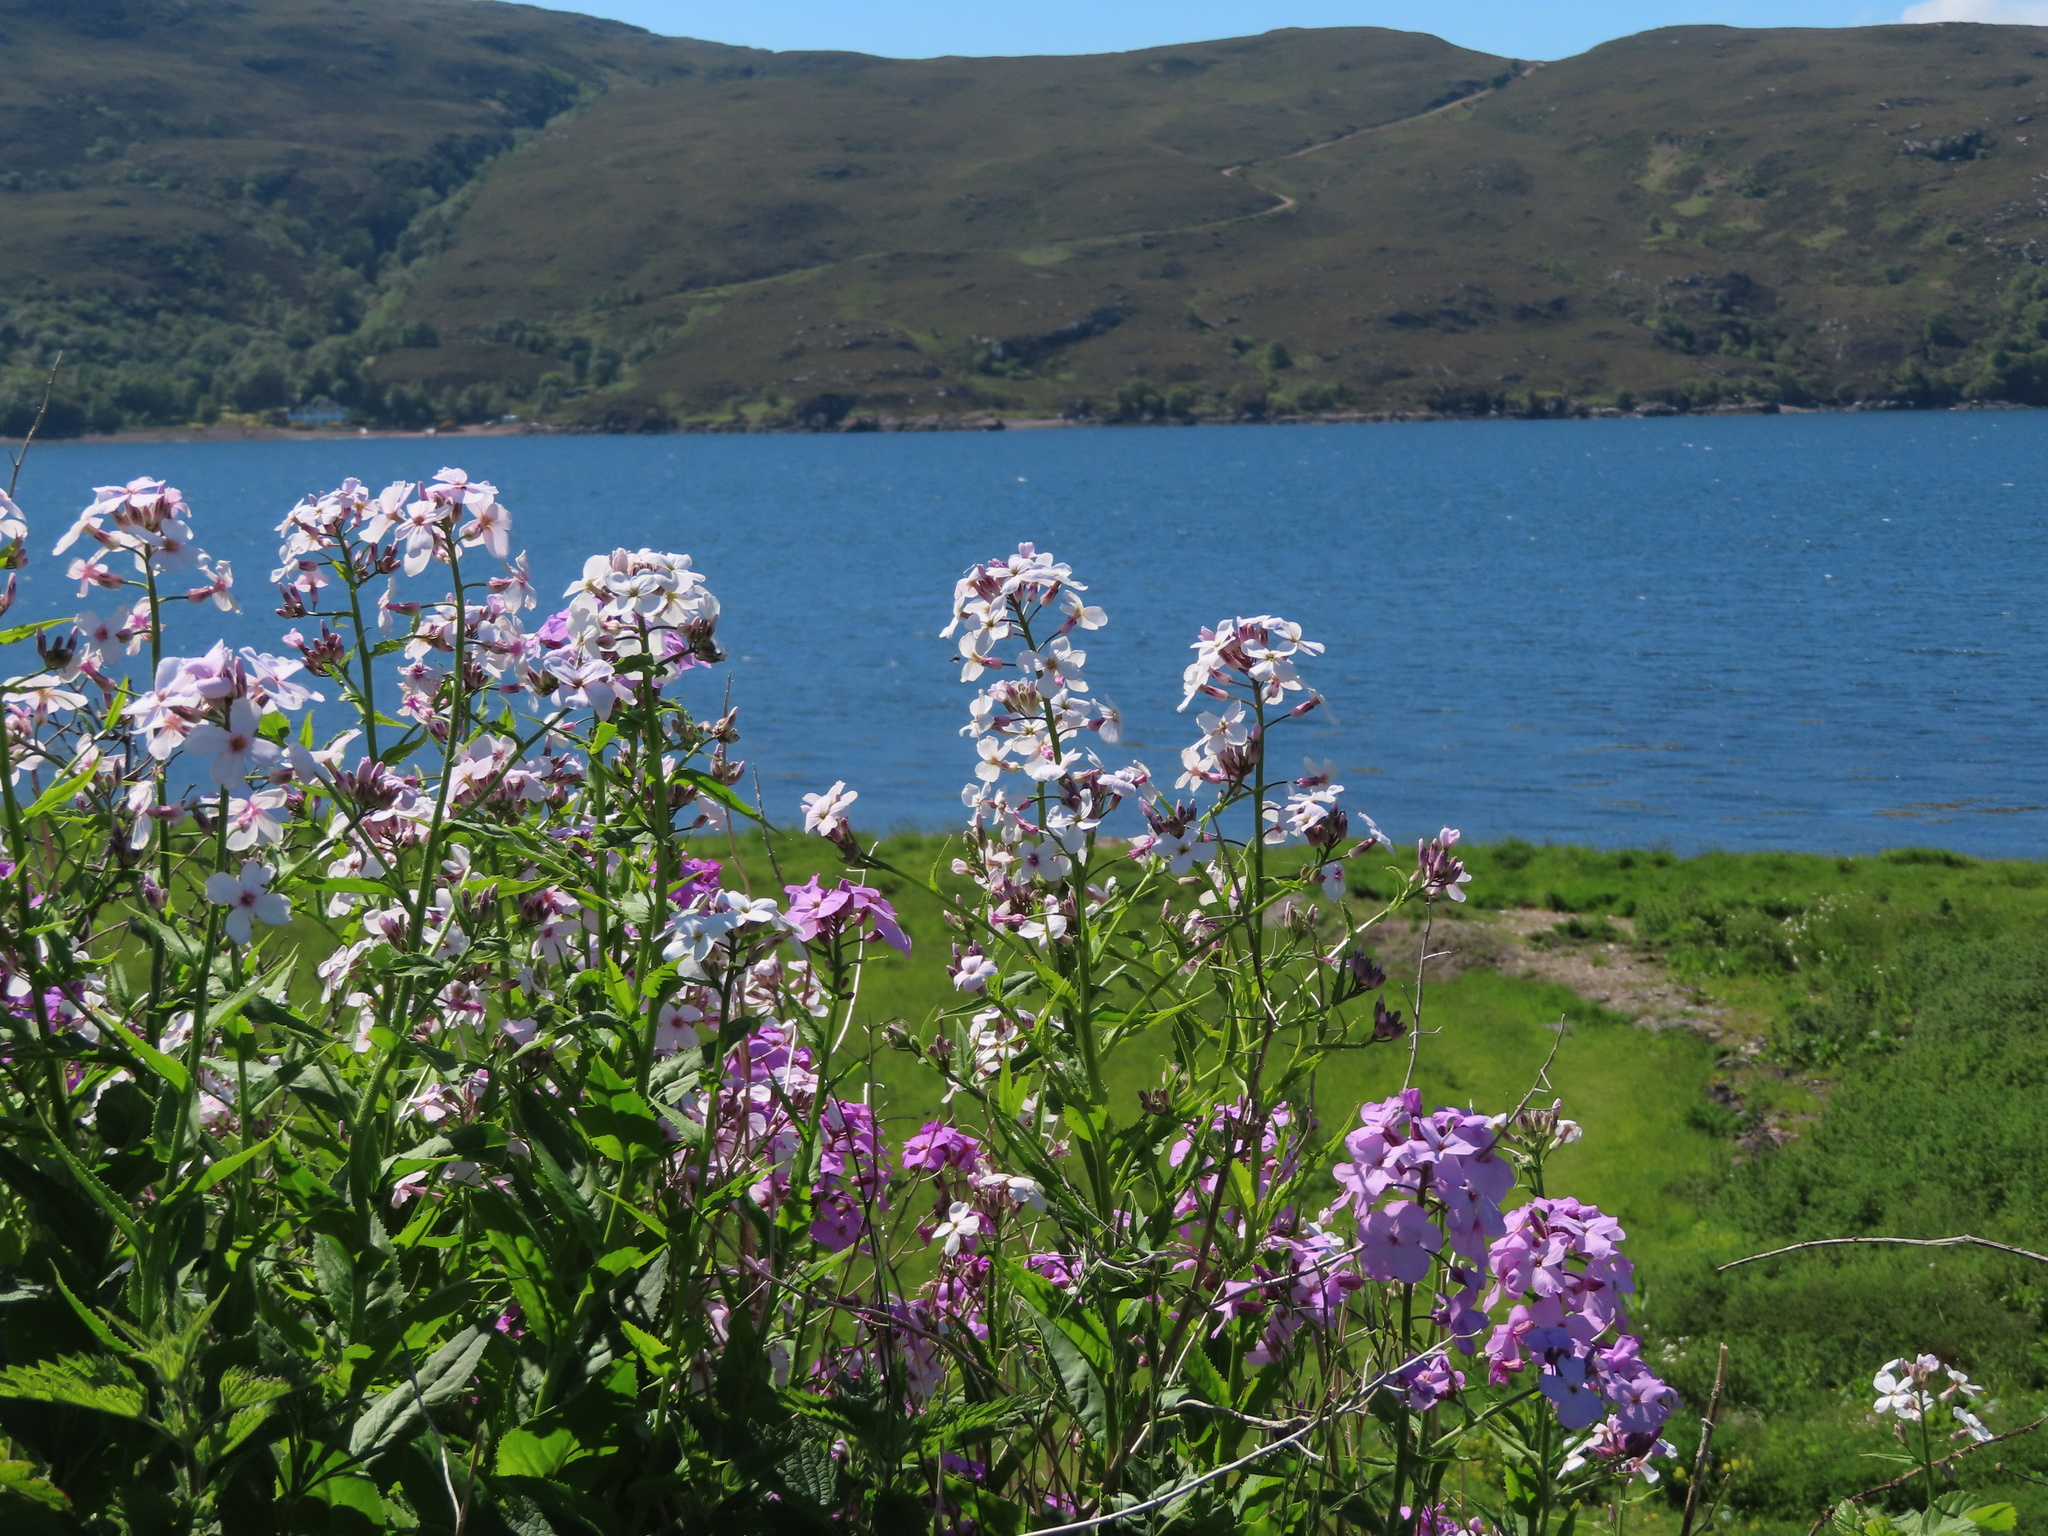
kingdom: Plantae
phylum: Tracheophyta
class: Magnoliopsida
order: Brassicales
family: Brassicaceae
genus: Hesperis
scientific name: Hesperis matronalis
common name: Dame's-violet
